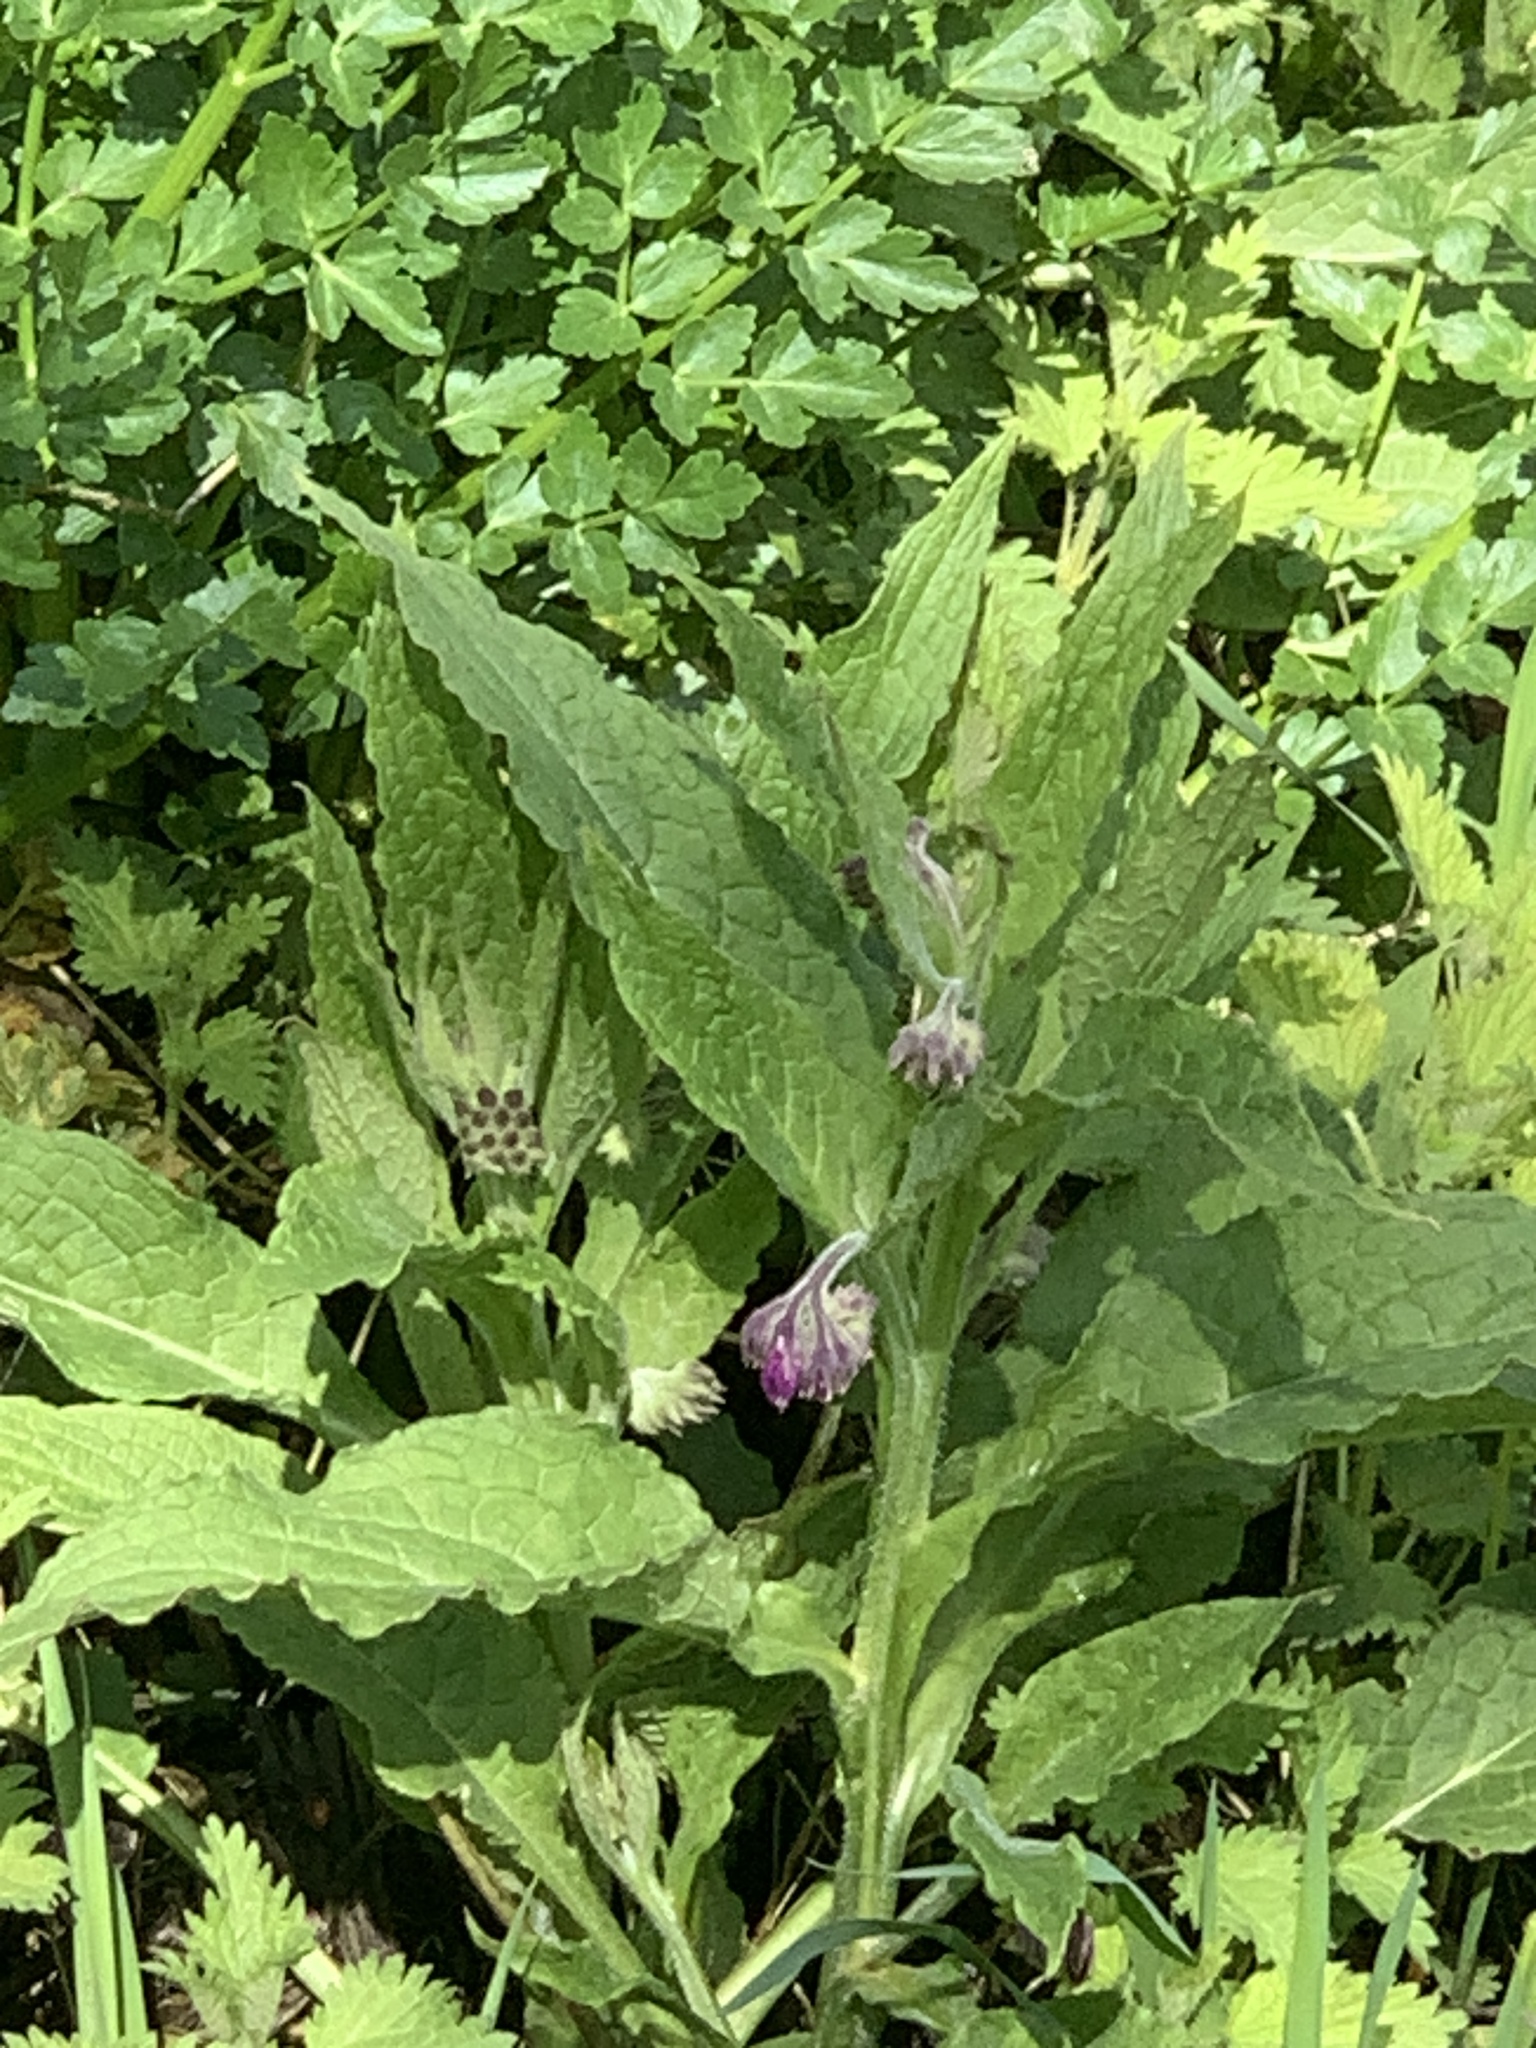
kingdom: Plantae
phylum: Tracheophyta
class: Magnoliopsida
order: Boraginales
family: Boraginaceae
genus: Symphytum
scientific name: Symphytum officinale
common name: Common comfrey
